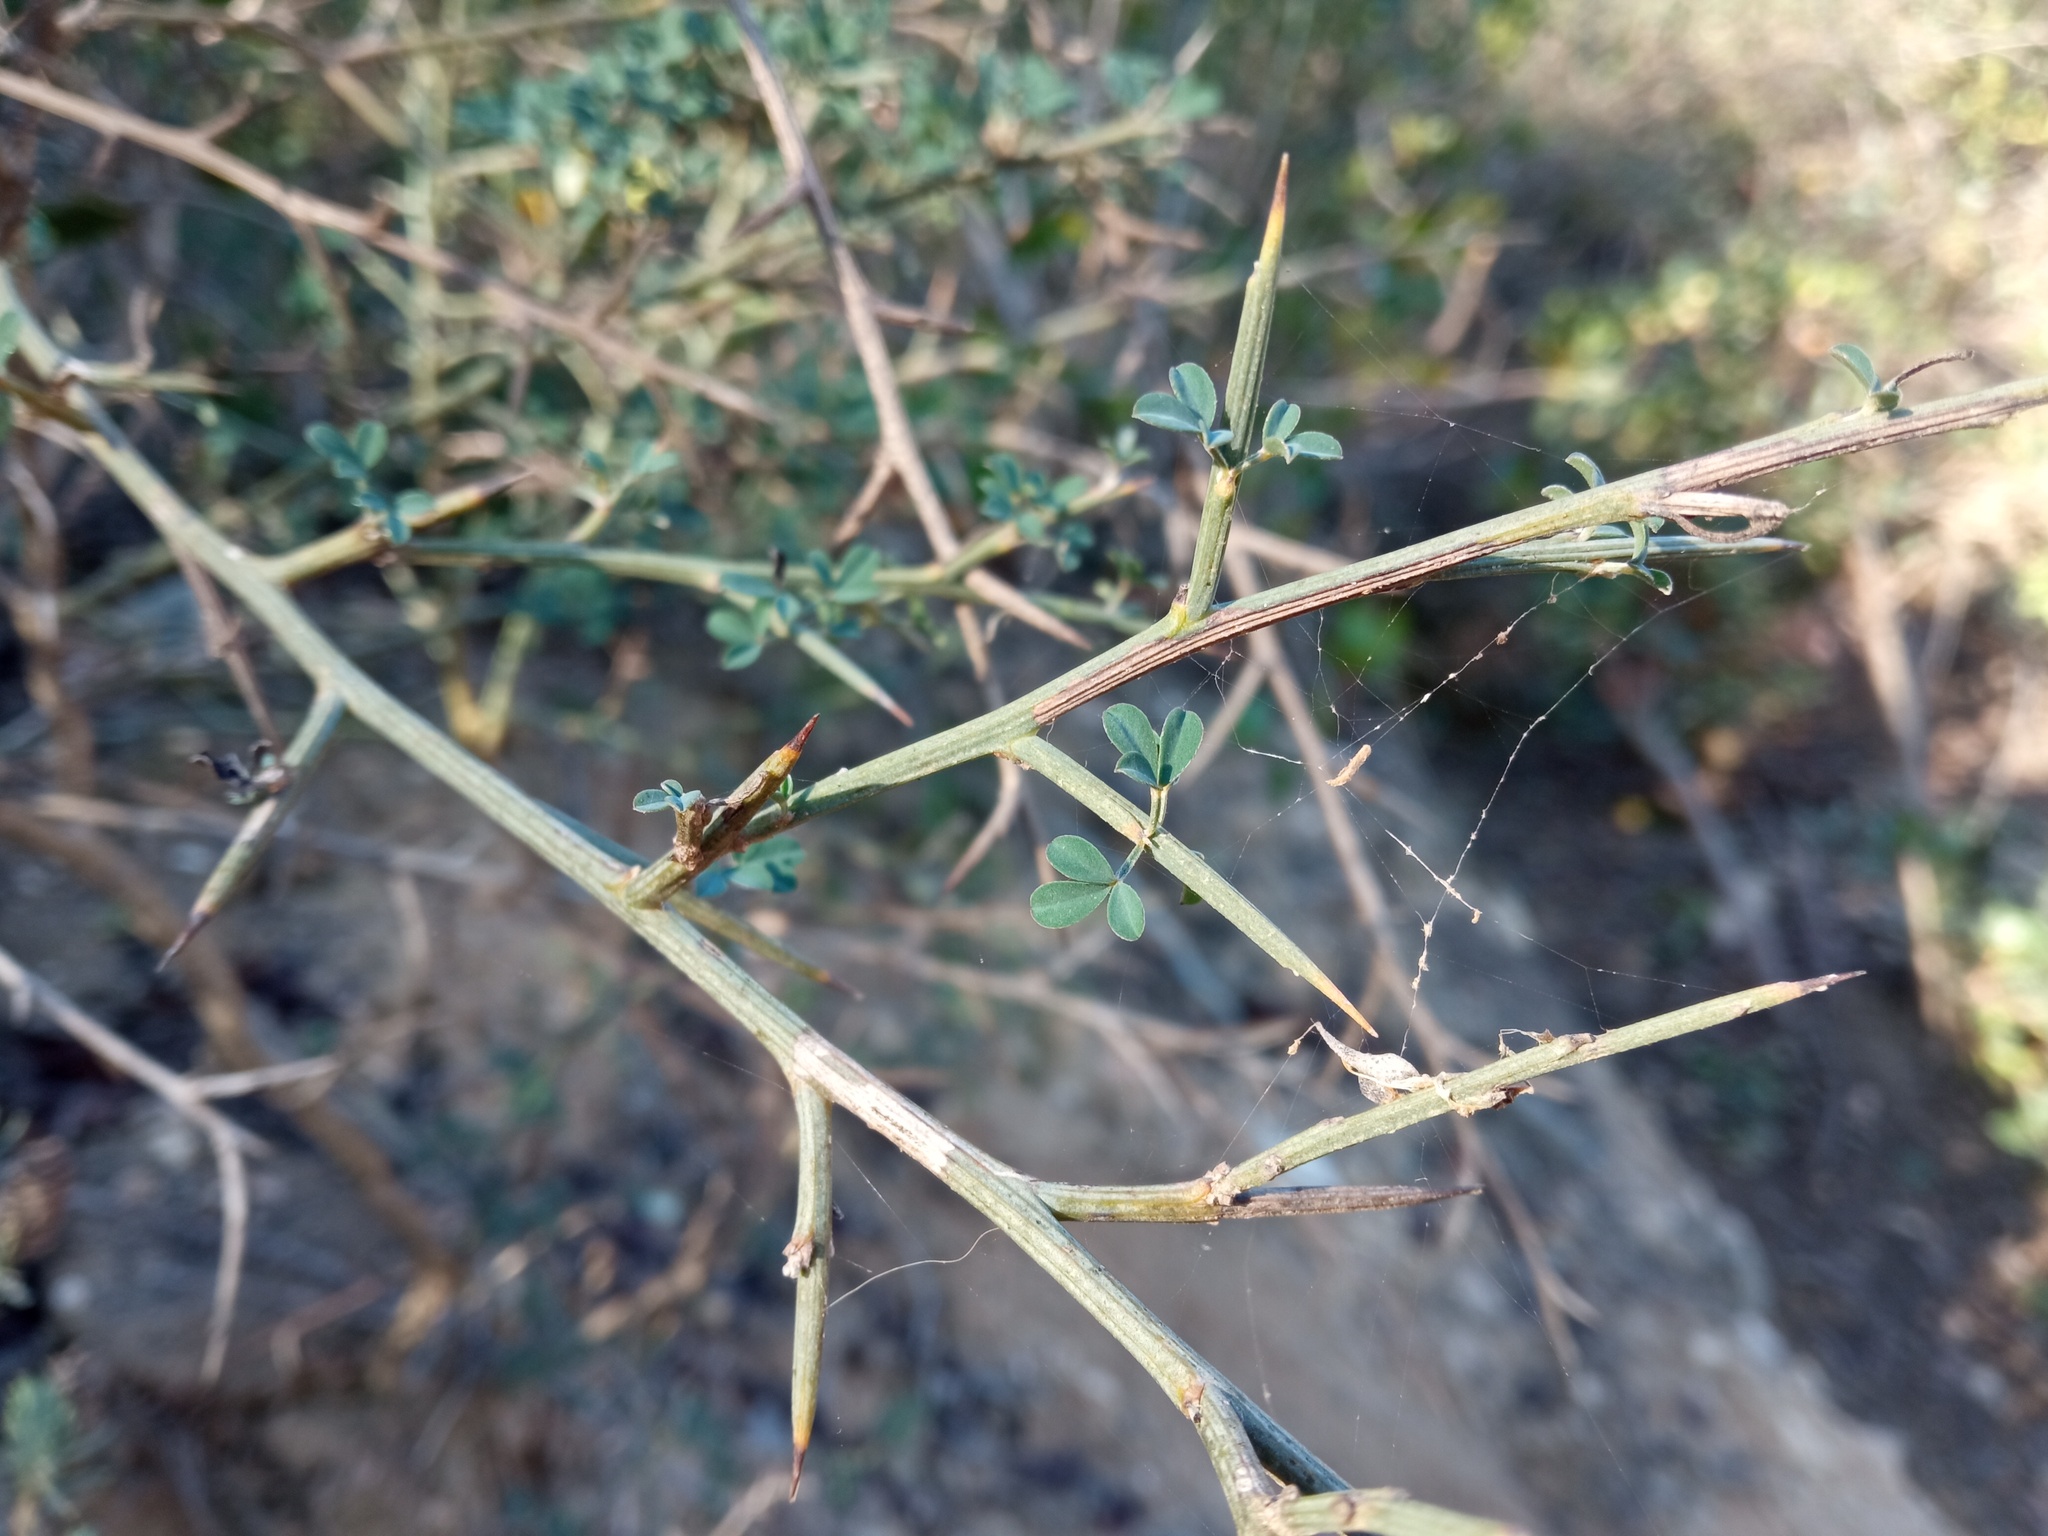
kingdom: Plantae
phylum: Tracheophyta
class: Magnoliopsida
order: Fabales
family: Fabaceae
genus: Calicotome
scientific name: Calicotome spinosa
